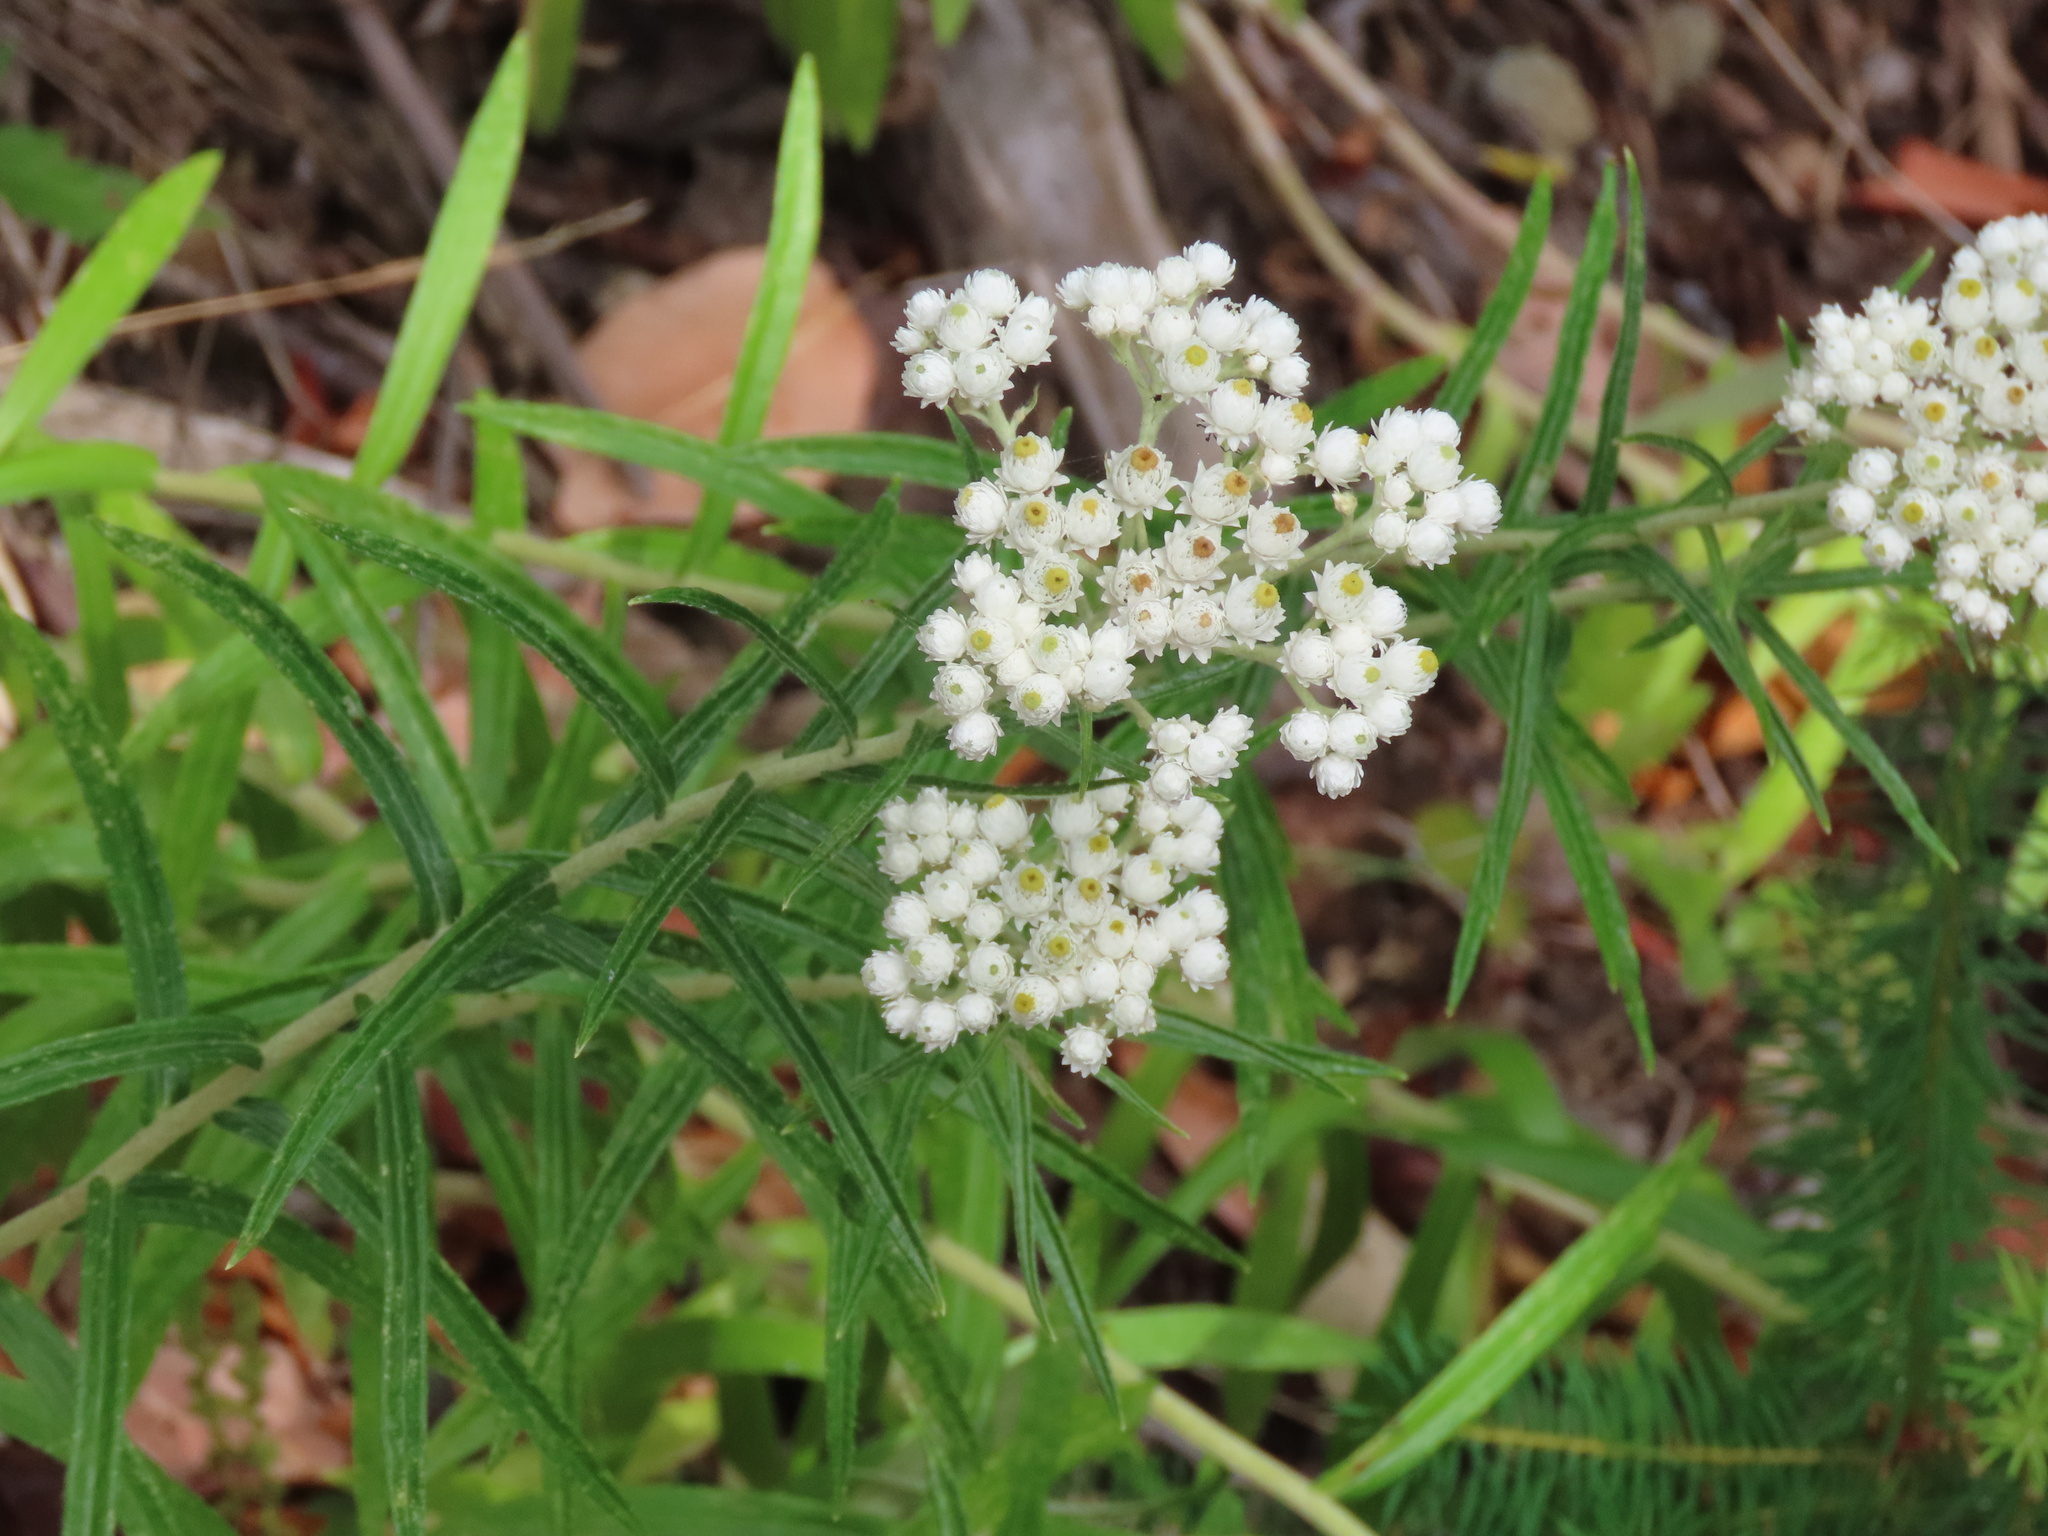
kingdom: Plantae
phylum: Tracheophyta
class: Magnoliopsida
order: Asterales
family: Asteraceae
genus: Anaphalis
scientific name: Anaphalis margaritacea
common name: Pearly everlasting
